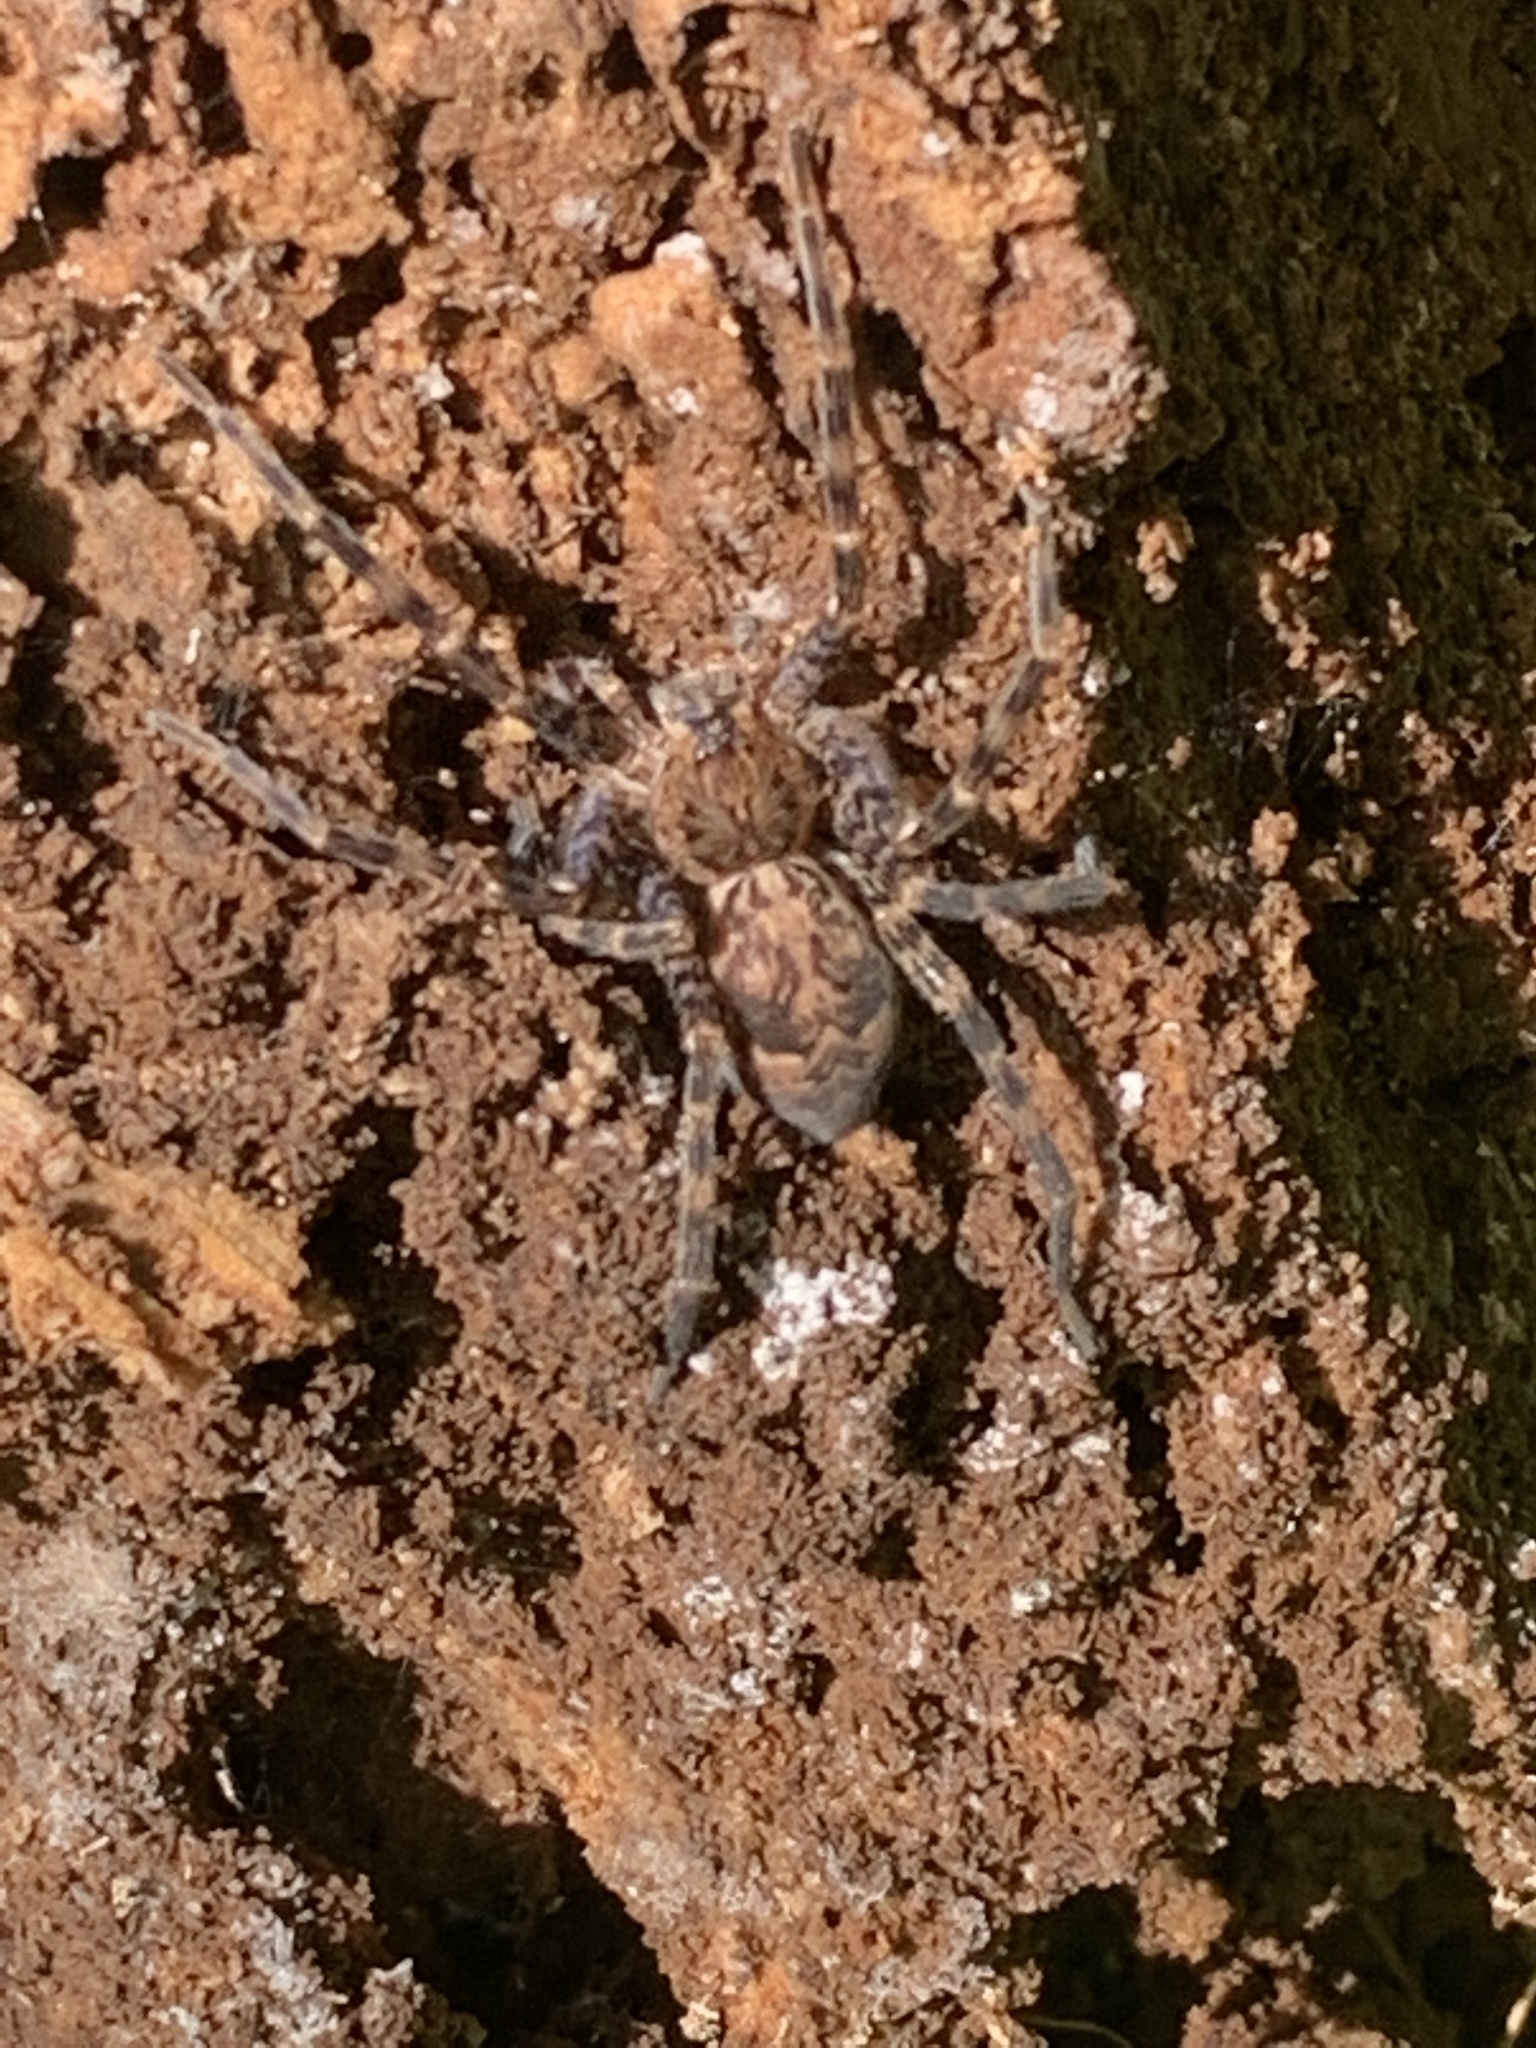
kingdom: Animalia
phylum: Arthropoda
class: Arachnida
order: Araneae
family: Pisauridae
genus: Dolomedes
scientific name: Dolomedes tenebrosus
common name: Dark fishing spider
